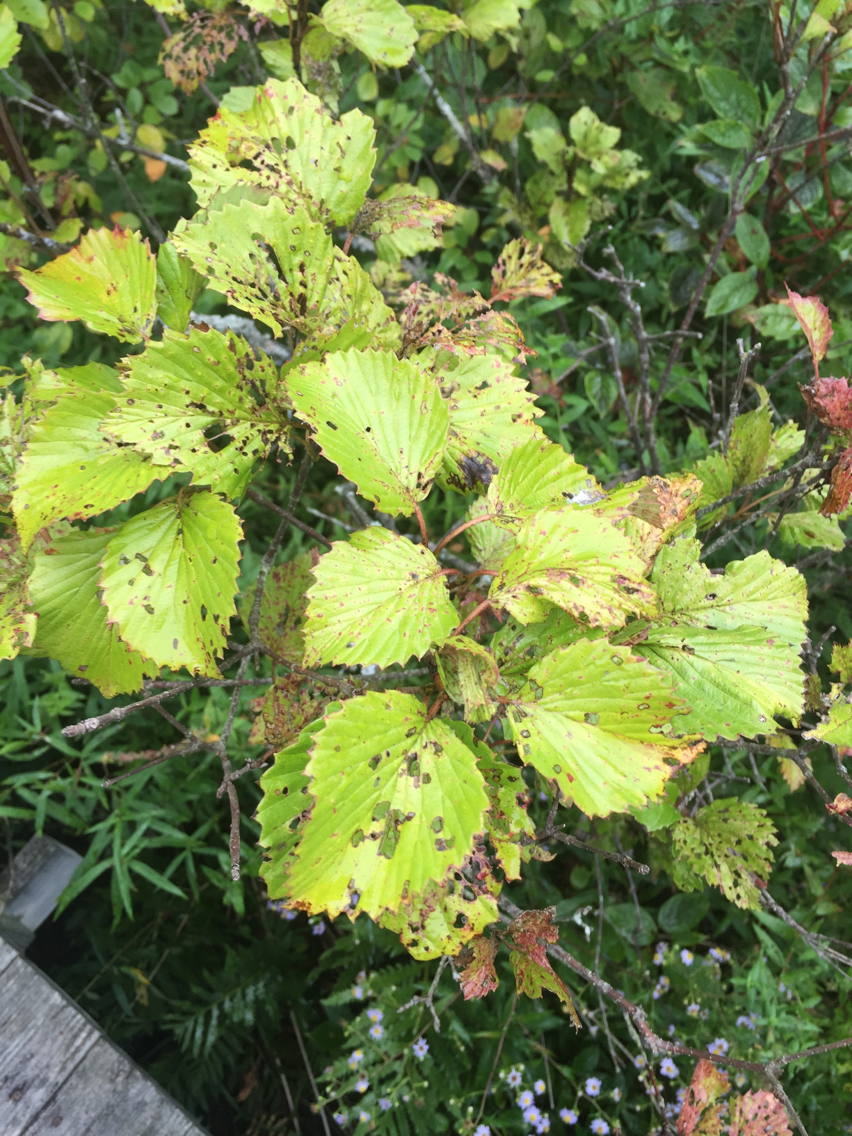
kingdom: Plantae
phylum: Tracheophyta
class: Magnoliopsida
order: Dipsacales
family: Viburnaceae
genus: Viburnum
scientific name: Viburnum dentatum
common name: Arrow-wood
